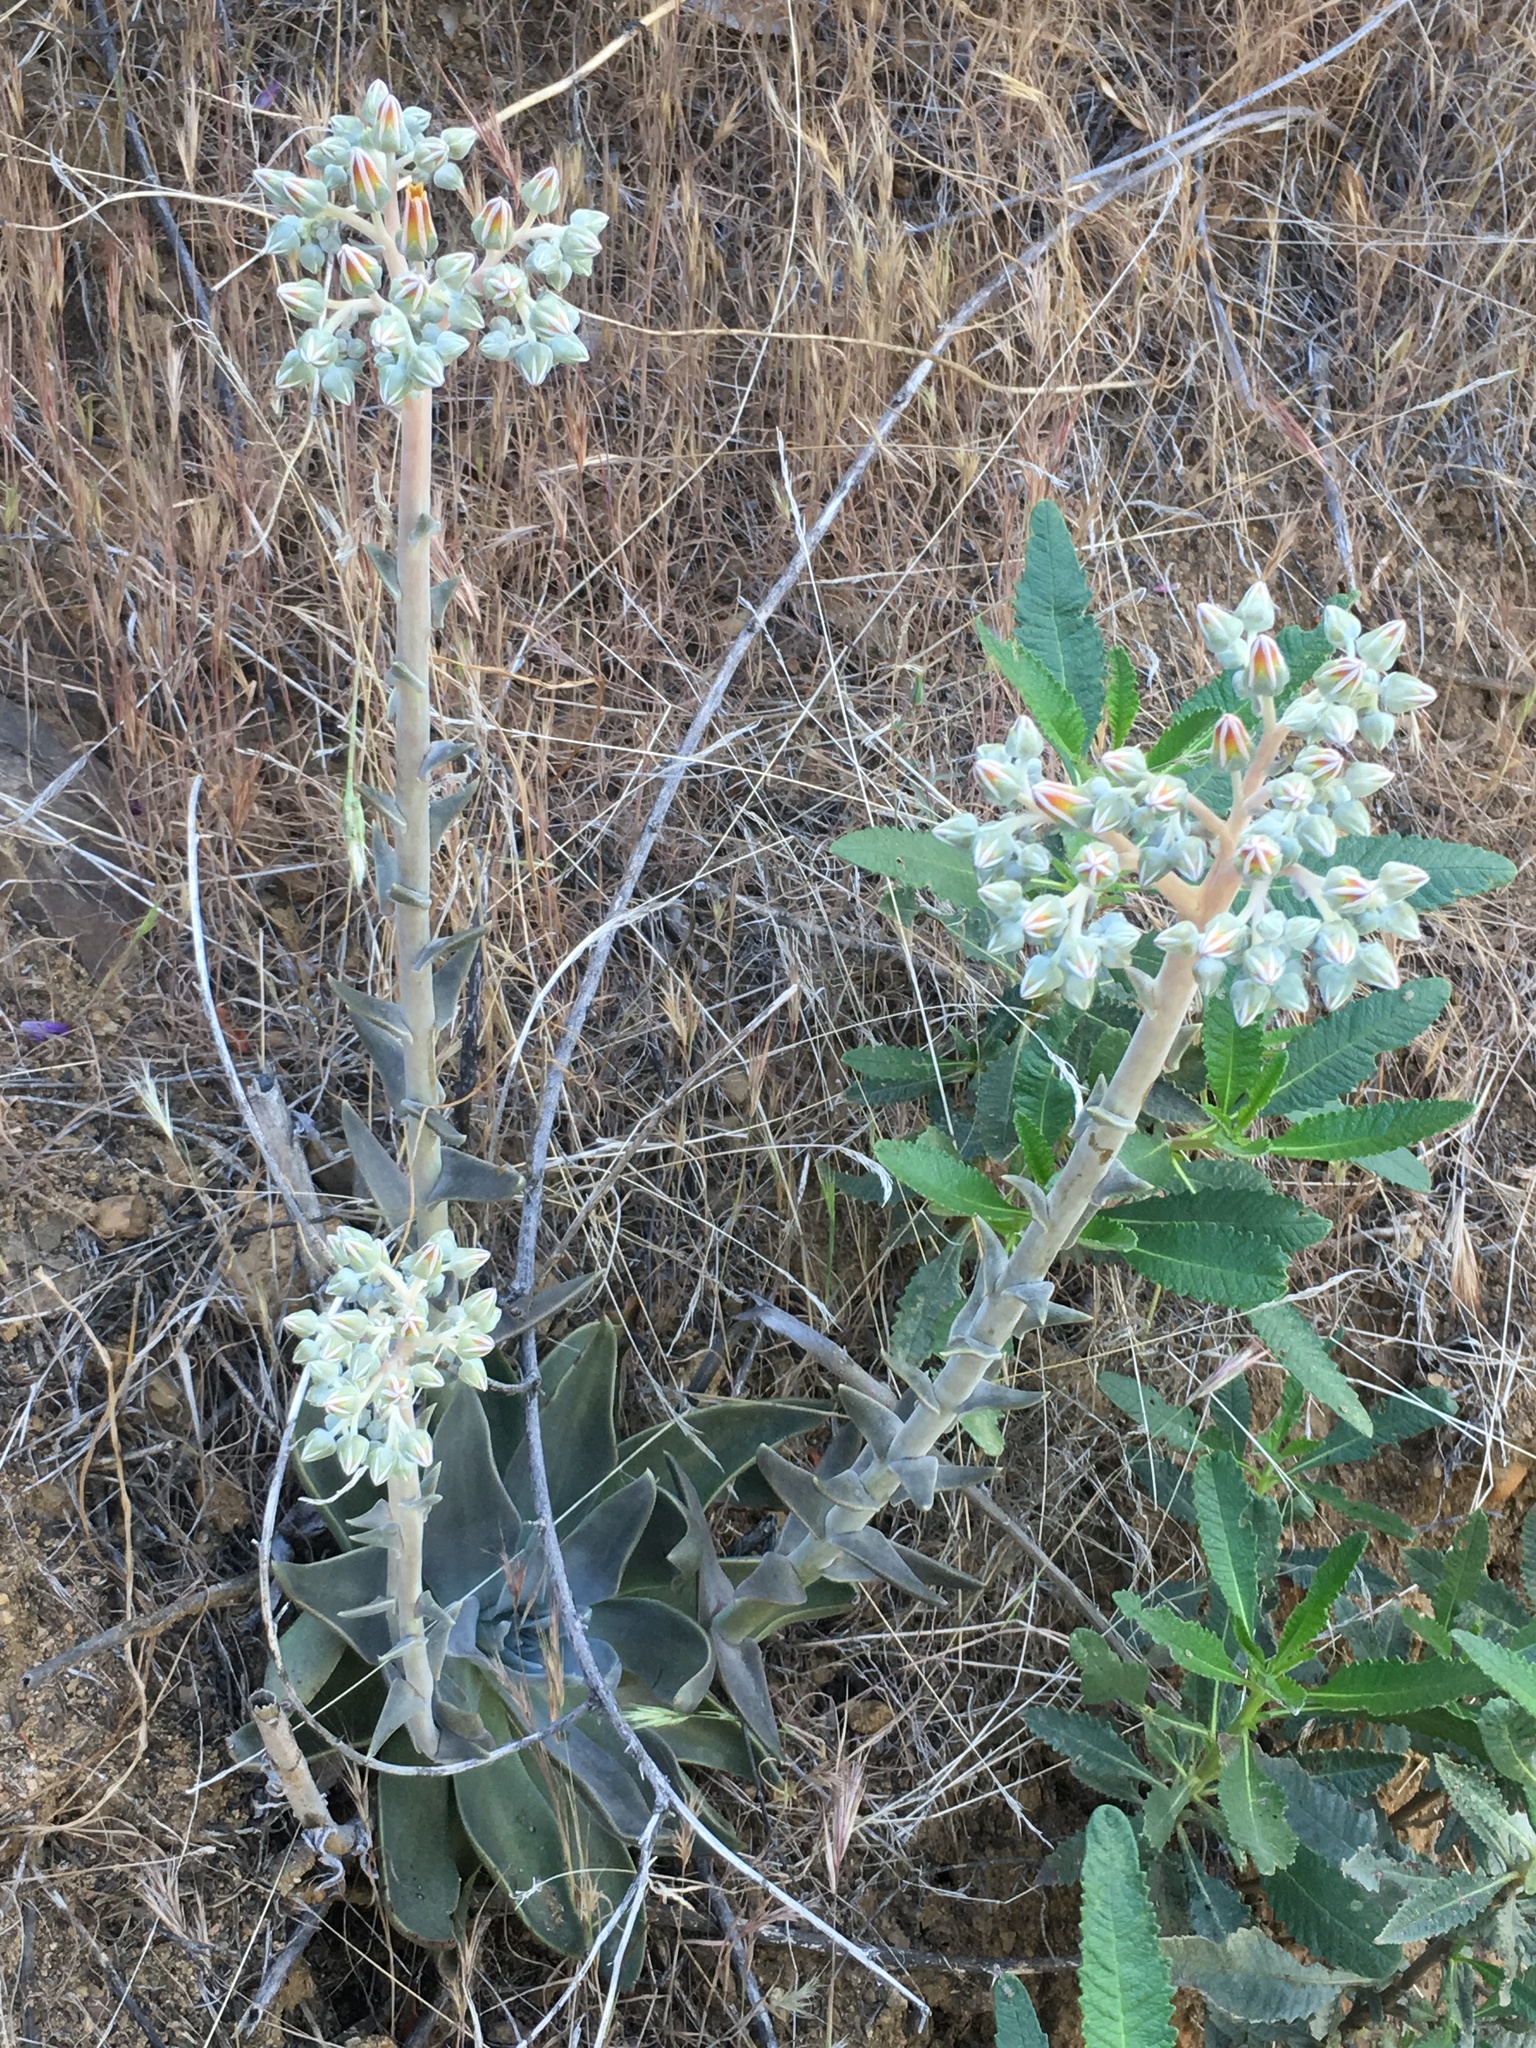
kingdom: Plantae
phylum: Tracheophyta
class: Magnoliopsida
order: Saxifragales
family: Crassulaceae
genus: Dudleya
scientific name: Dudleya lanceolata
